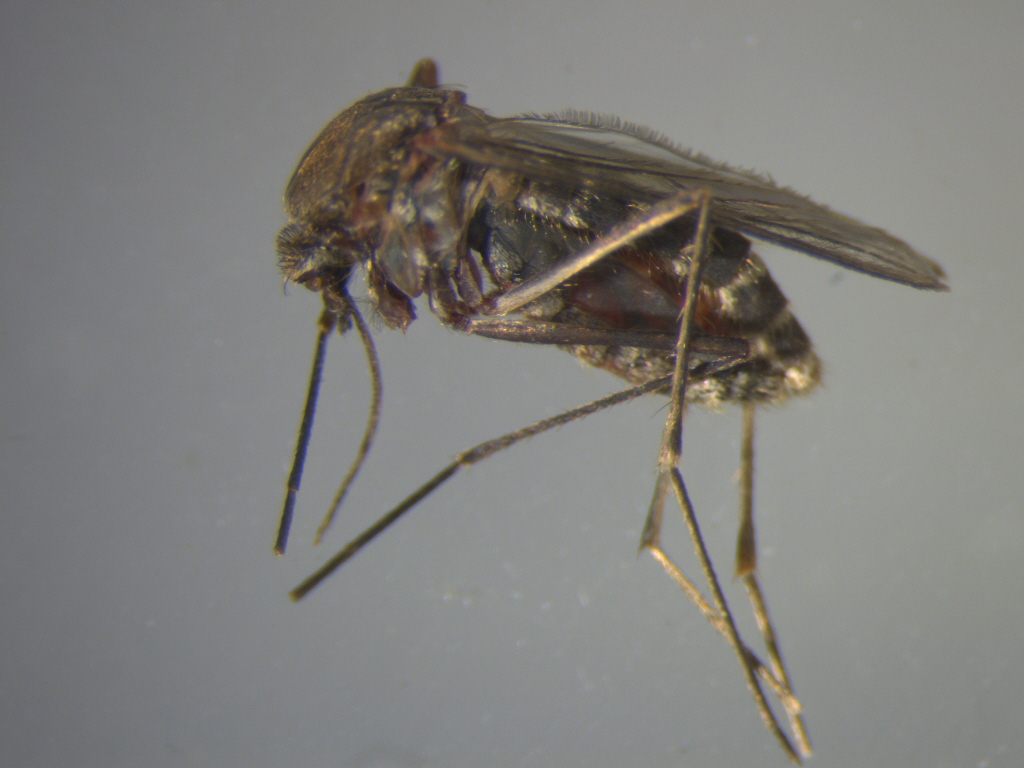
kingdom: Animalia
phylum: Arthropoda
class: Insecta
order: Diptera
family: Culicidae
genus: Culex
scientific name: Culex quinquefasciatus
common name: Southern house mosquito
